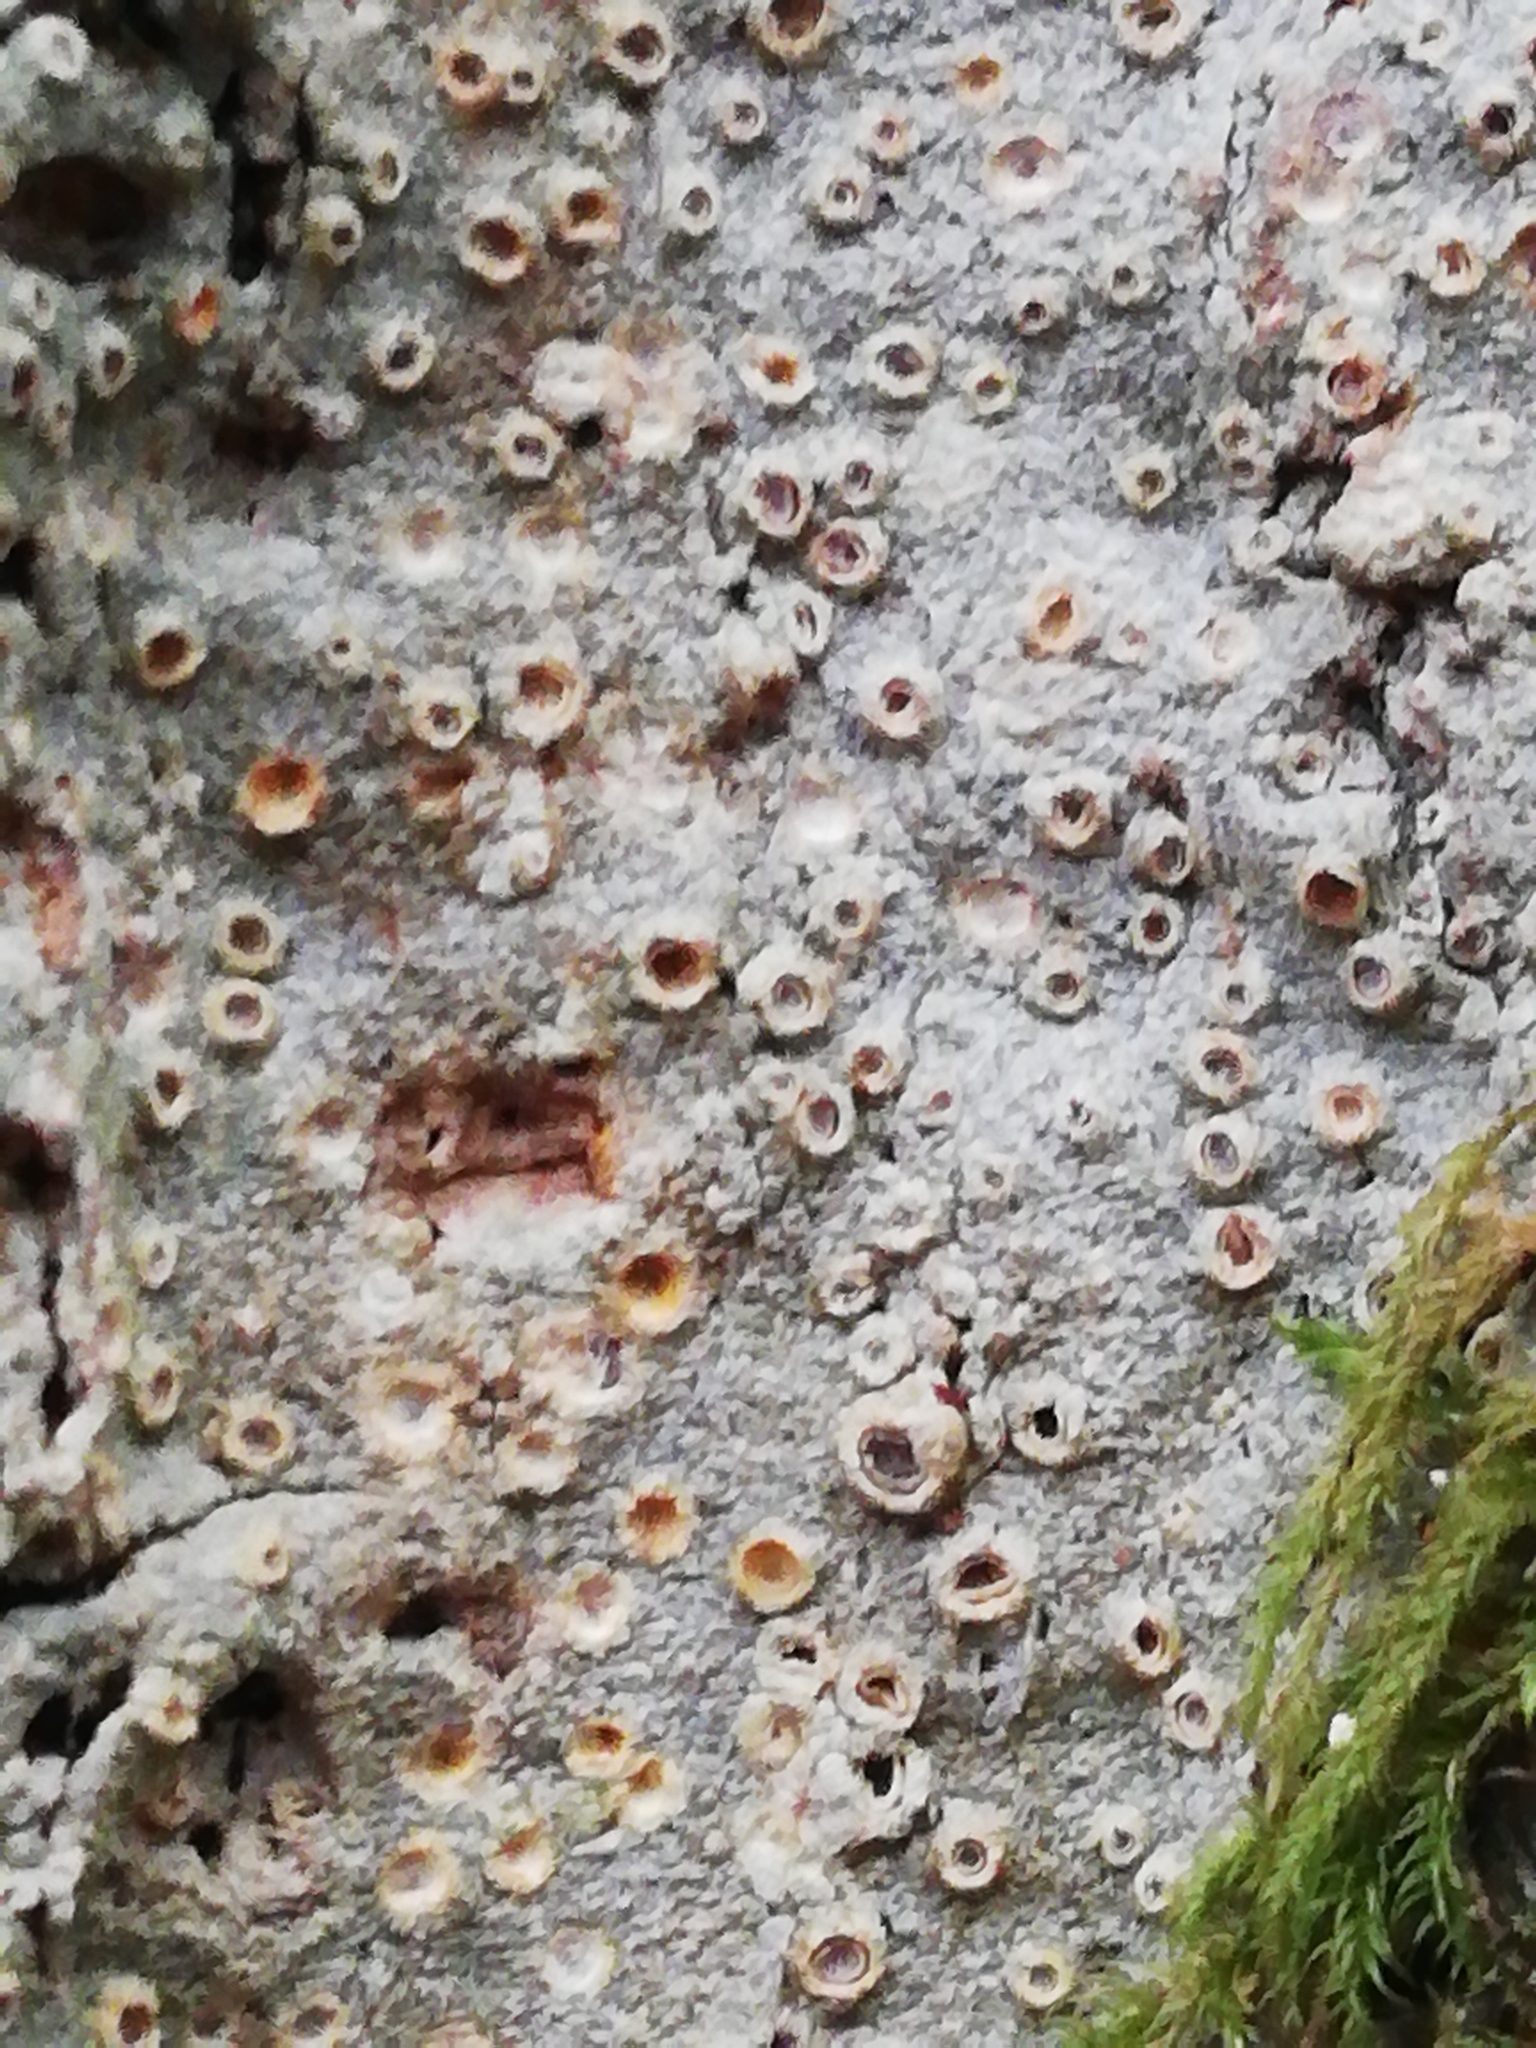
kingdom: Fungi
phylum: Ascomycota
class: Lecanoromycetes
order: Ostropales
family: Graphidaceae
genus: Thelotrema
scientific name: Thelotrema lepadinum
